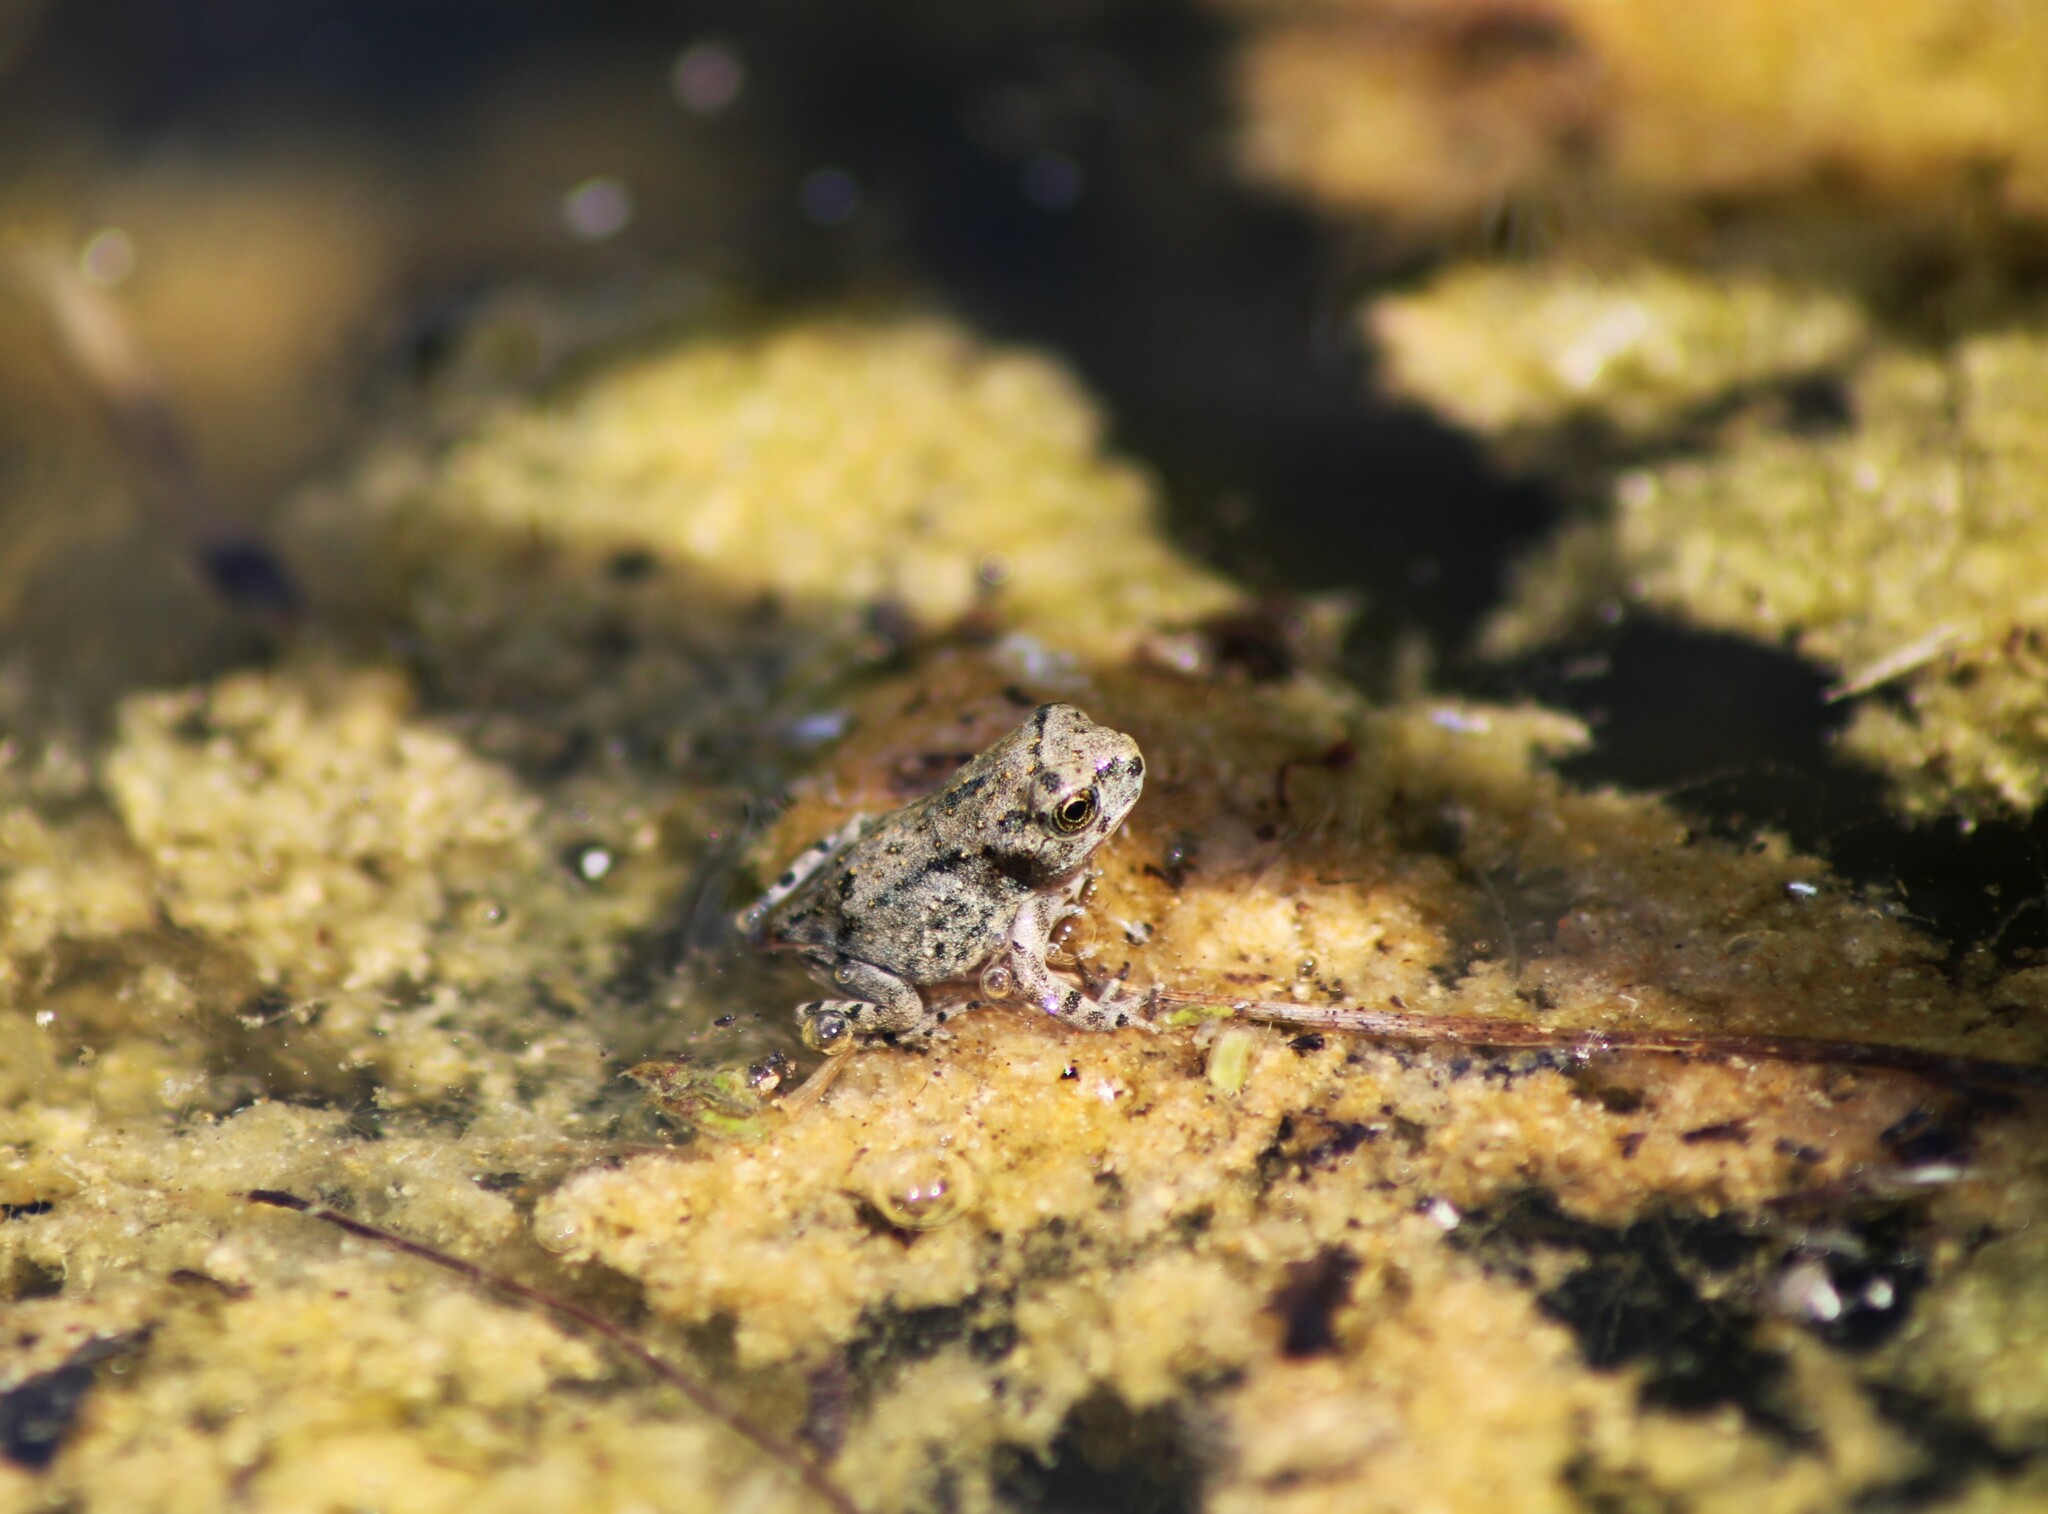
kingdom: Animalia
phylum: Chordata
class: Amphibia
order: Anura
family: Bufonidae
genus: Bufotes
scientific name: Bufotes viridis
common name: European green toad
